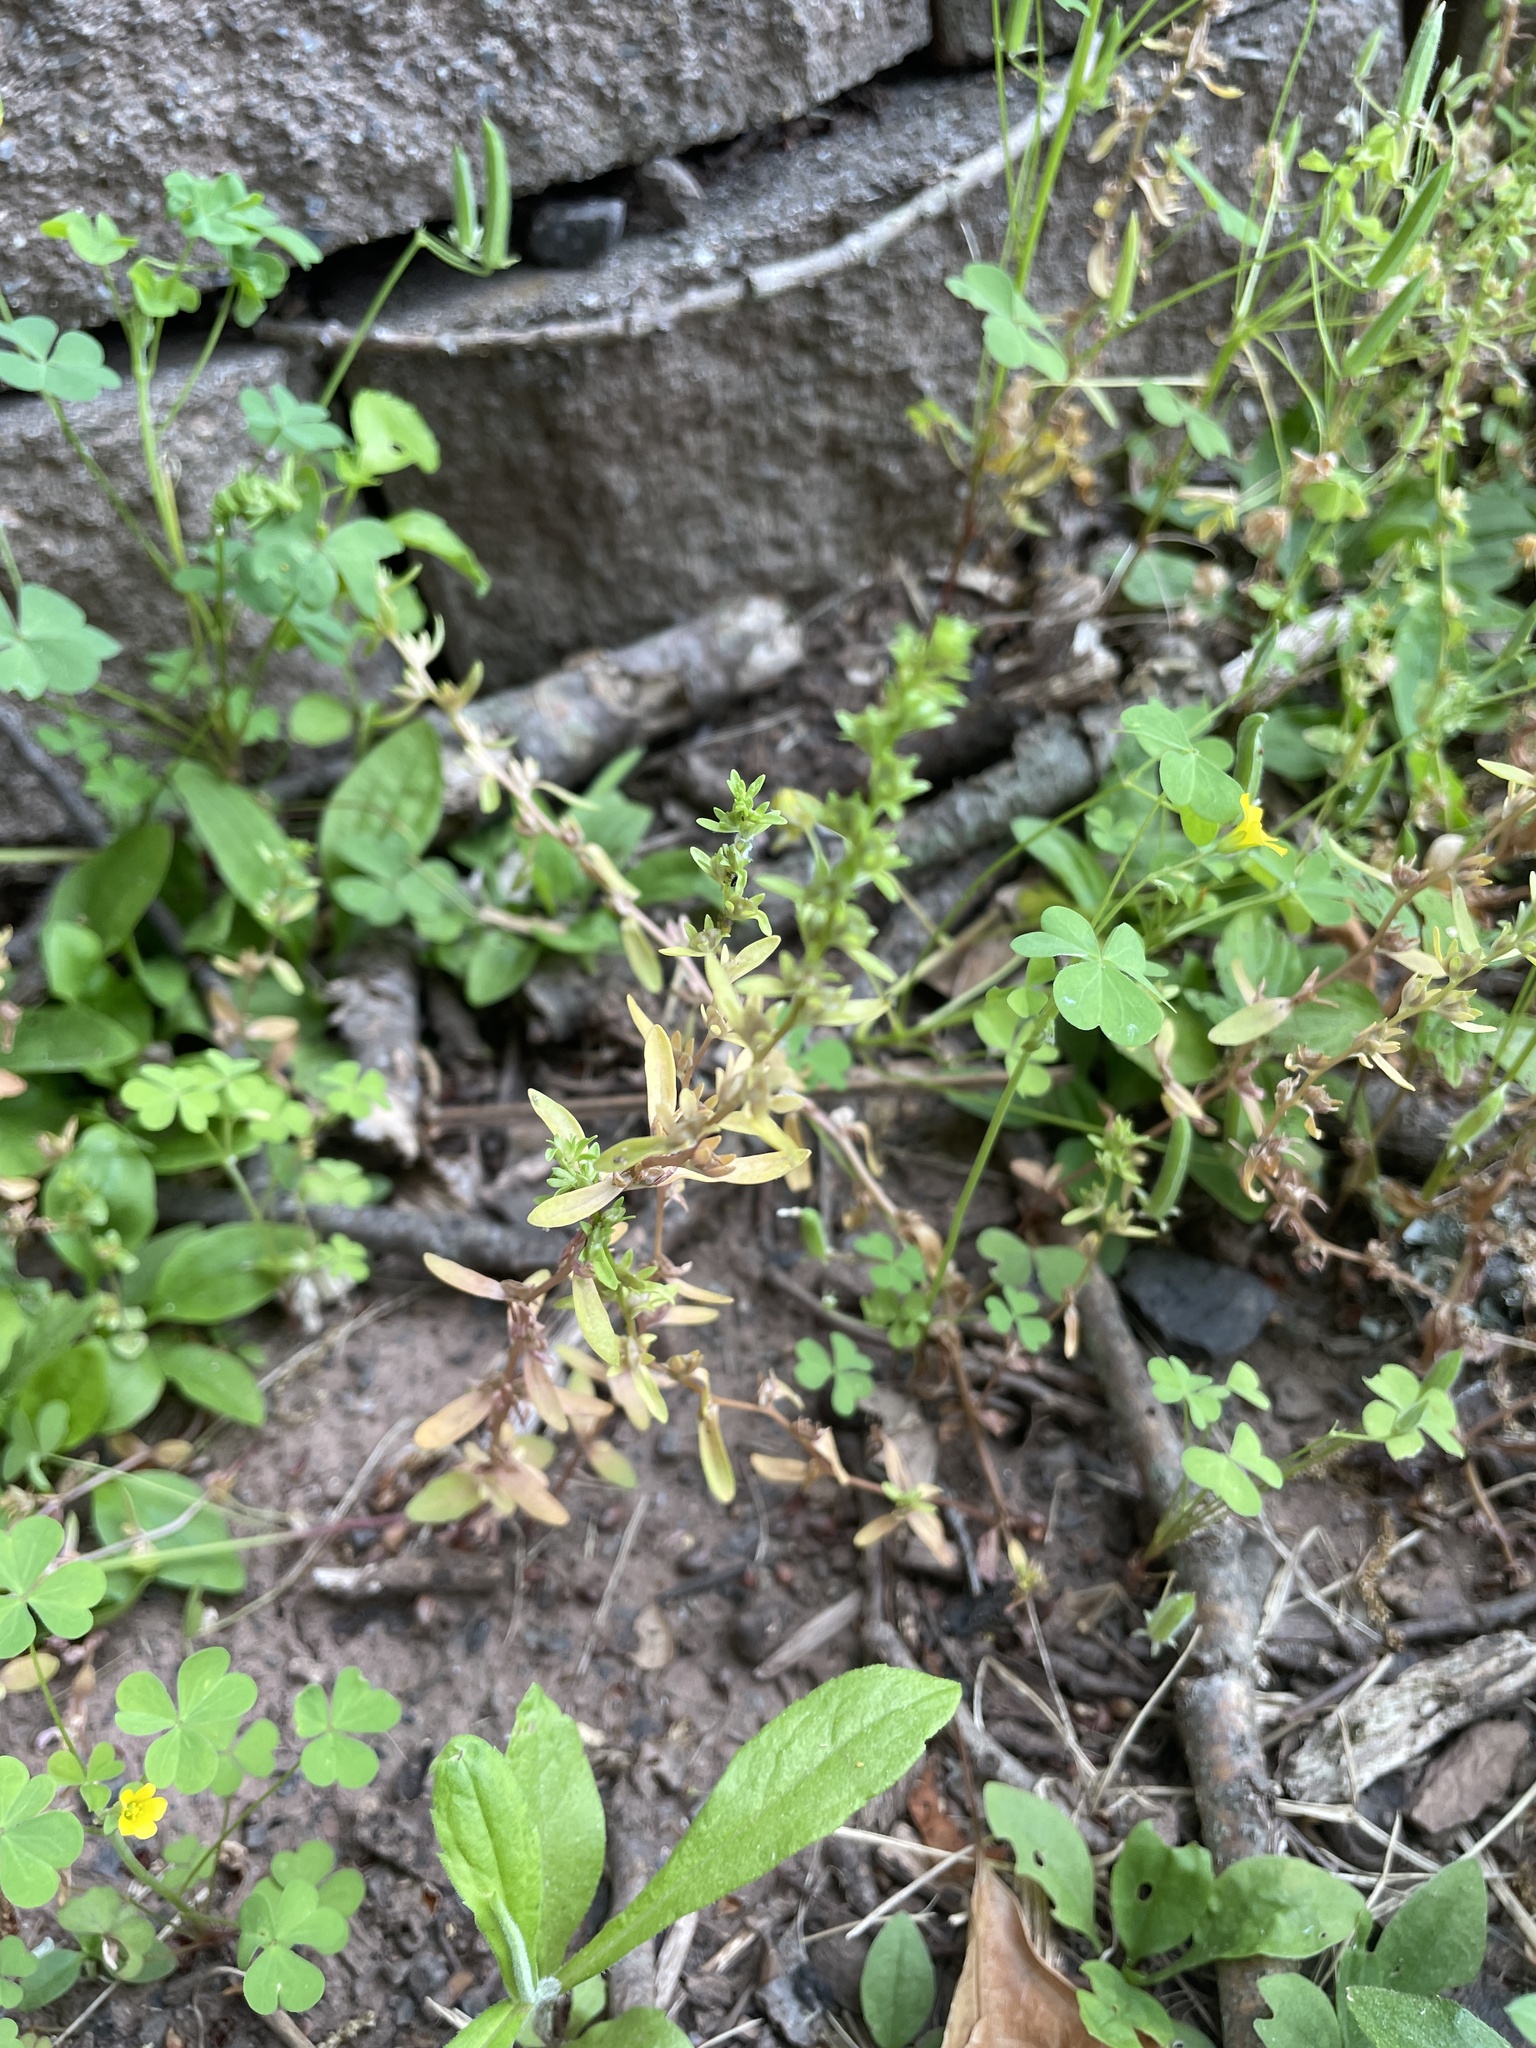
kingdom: Plantae
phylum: Tracheophyta
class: Magnoliopsida
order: Lamiales
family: Plantaginaceae
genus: Veronica
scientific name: Veronica peregrina
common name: Neckweed
